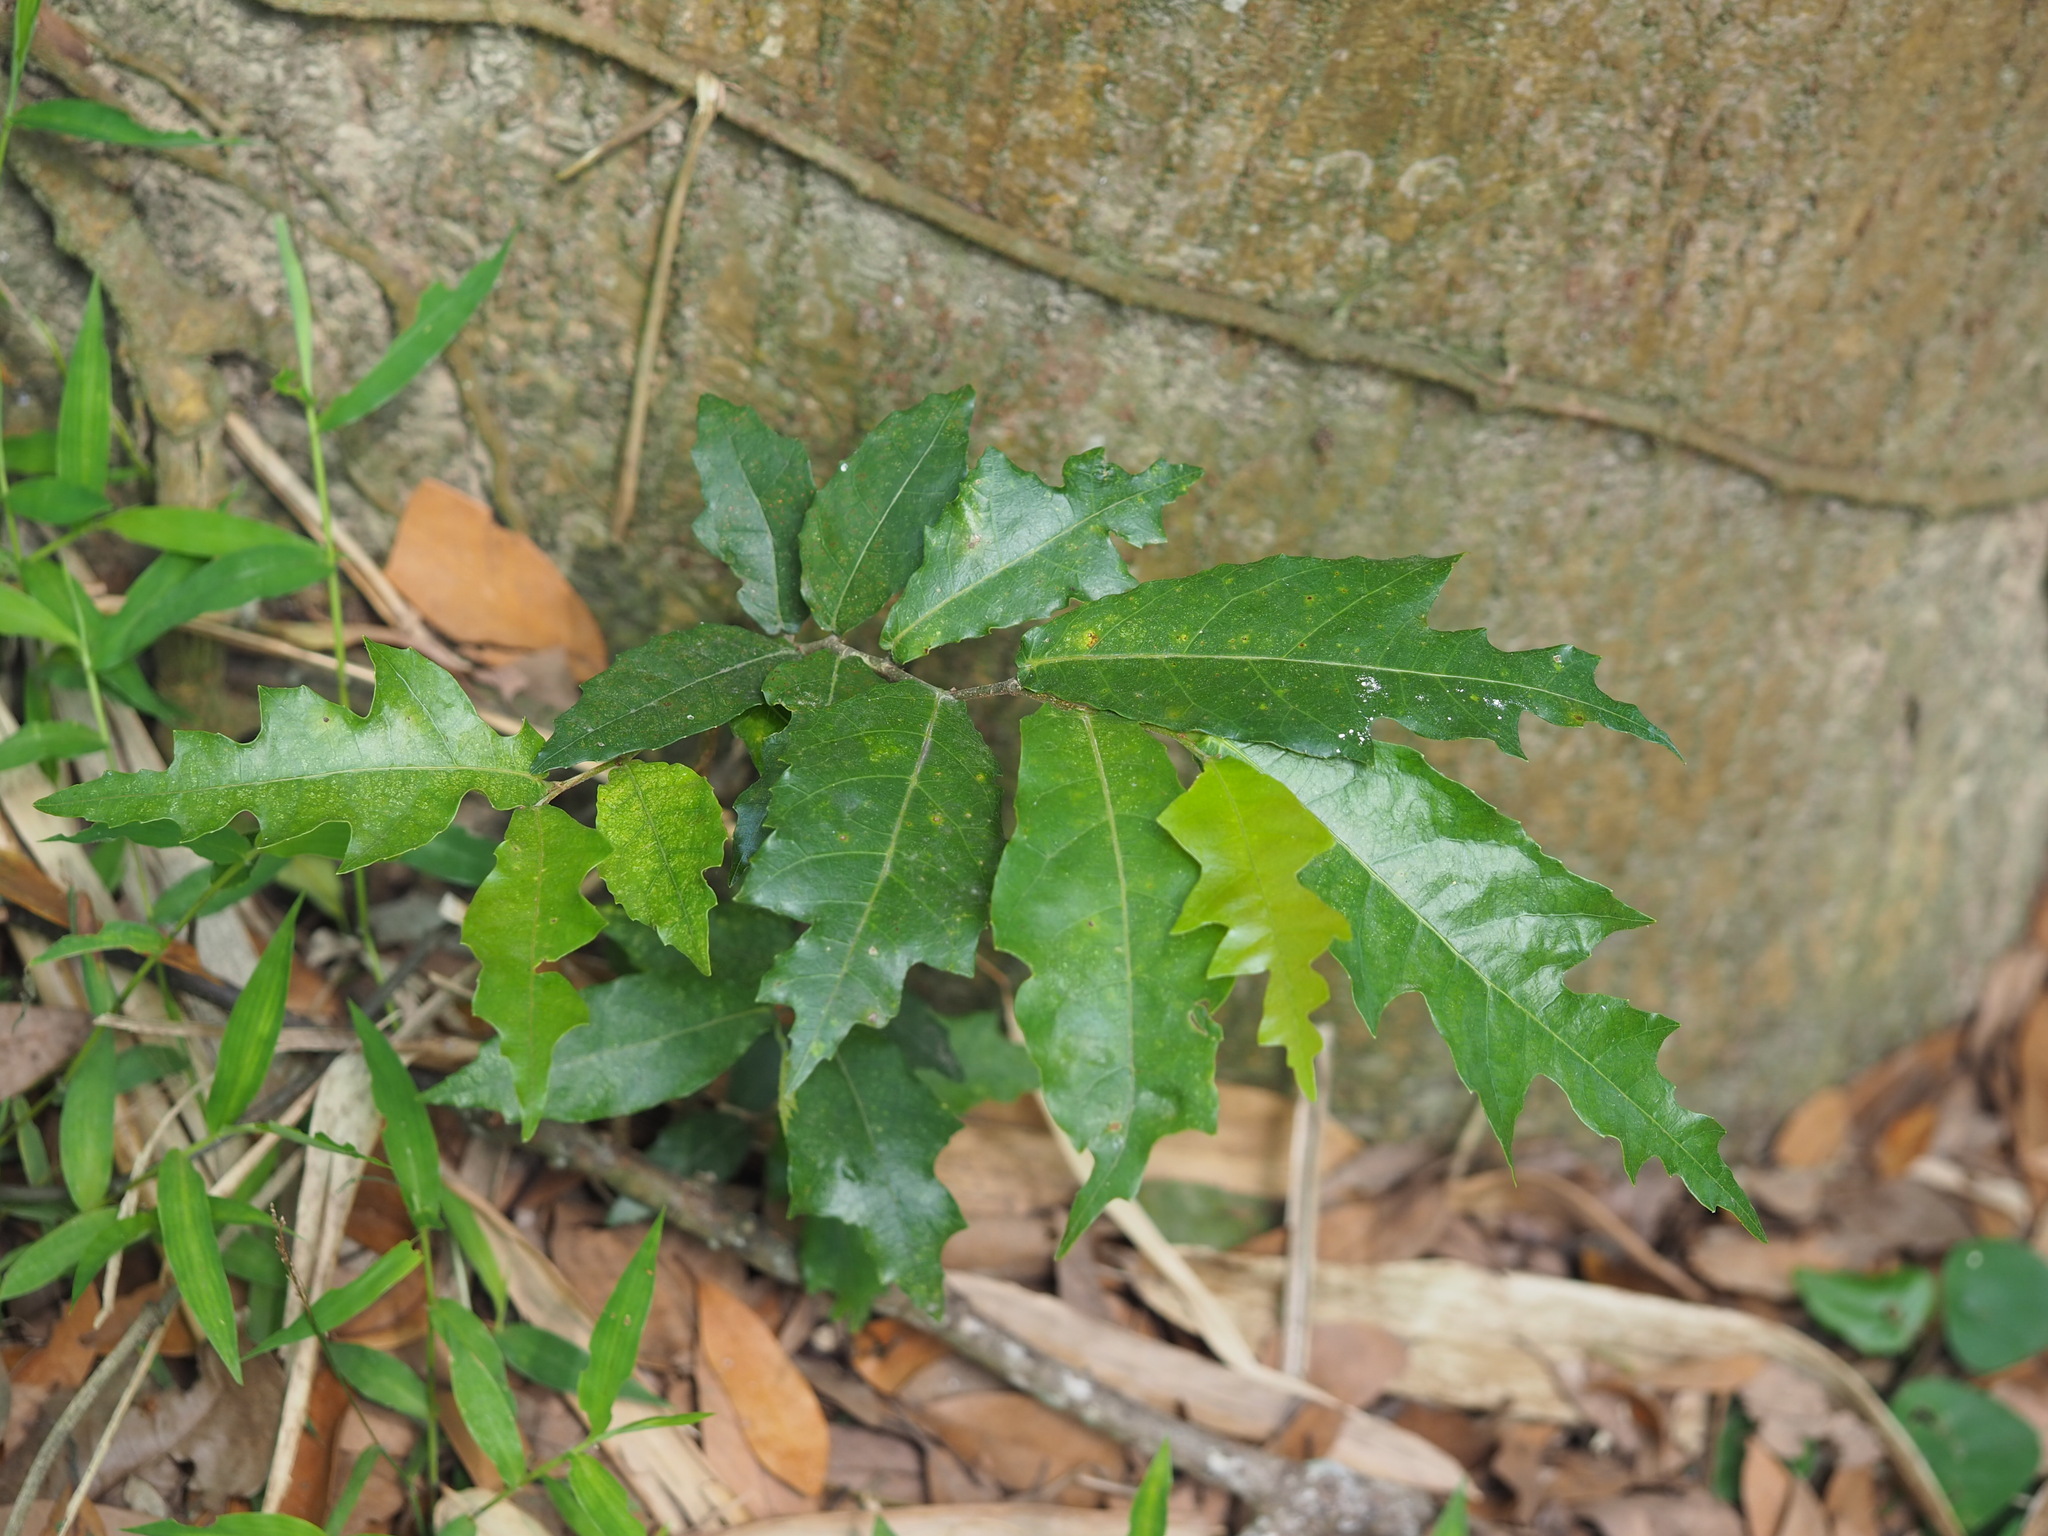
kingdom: Plantae
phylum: Tracheophyta
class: Magnoliopsida
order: Rosales
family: Moraceae
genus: Malaisia
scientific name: Malaisia scandens
